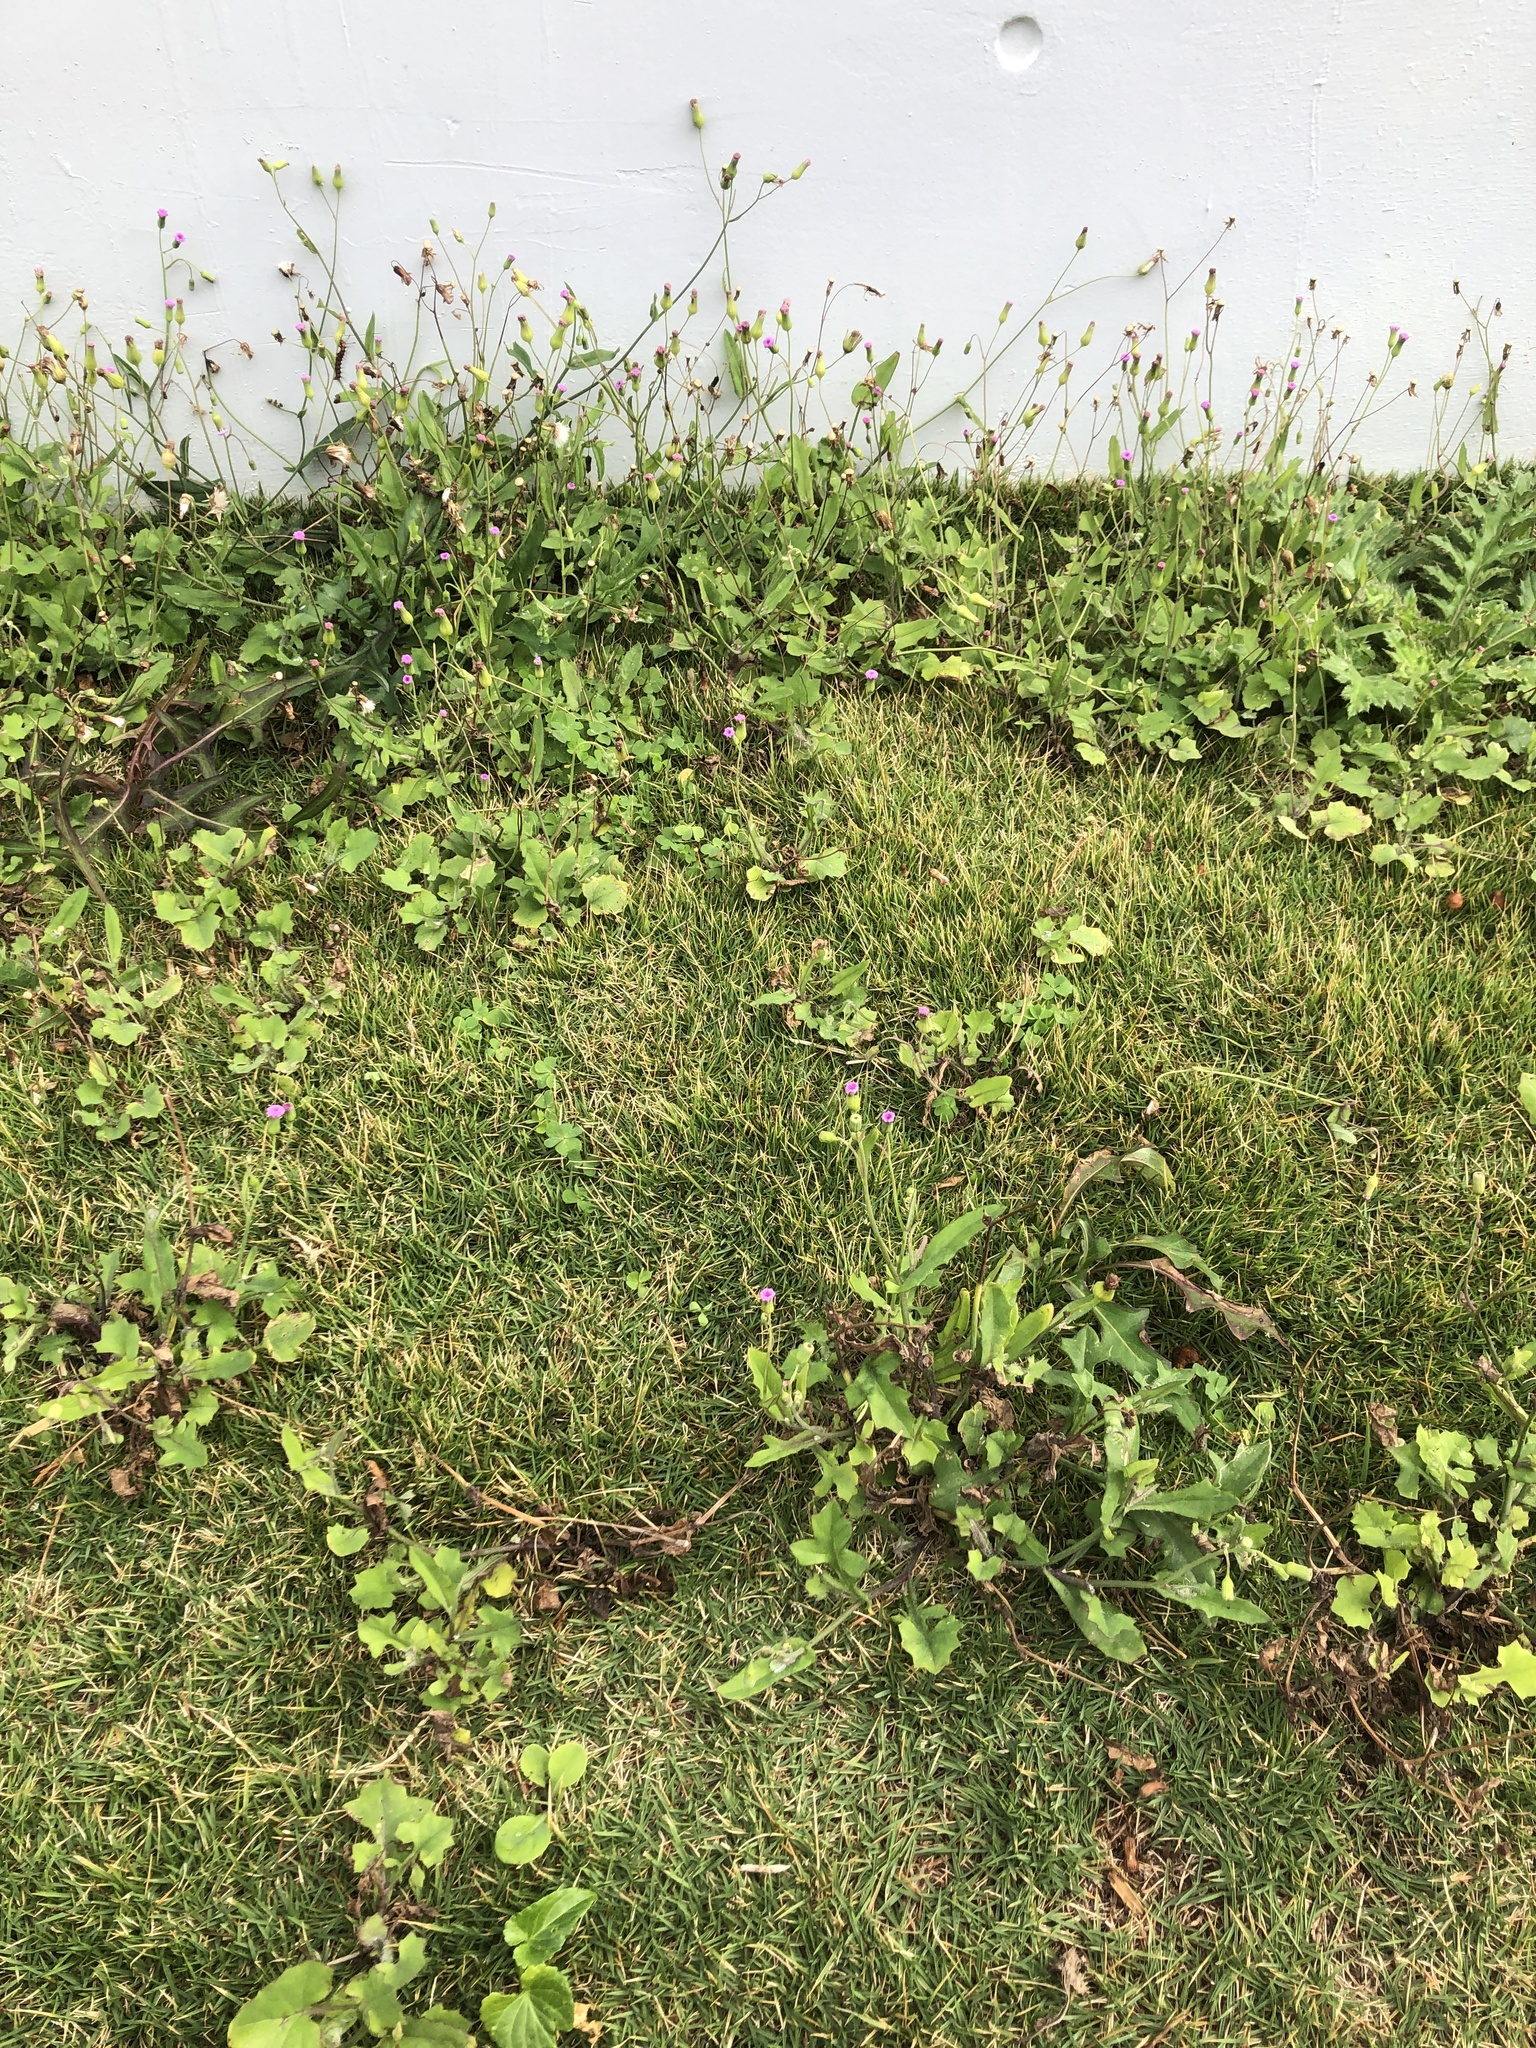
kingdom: Plantae
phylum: Tracheophyta
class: Magnoliopsida
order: Asterales
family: Asteraceae
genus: Emilia
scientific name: Emilia sonchifolia
